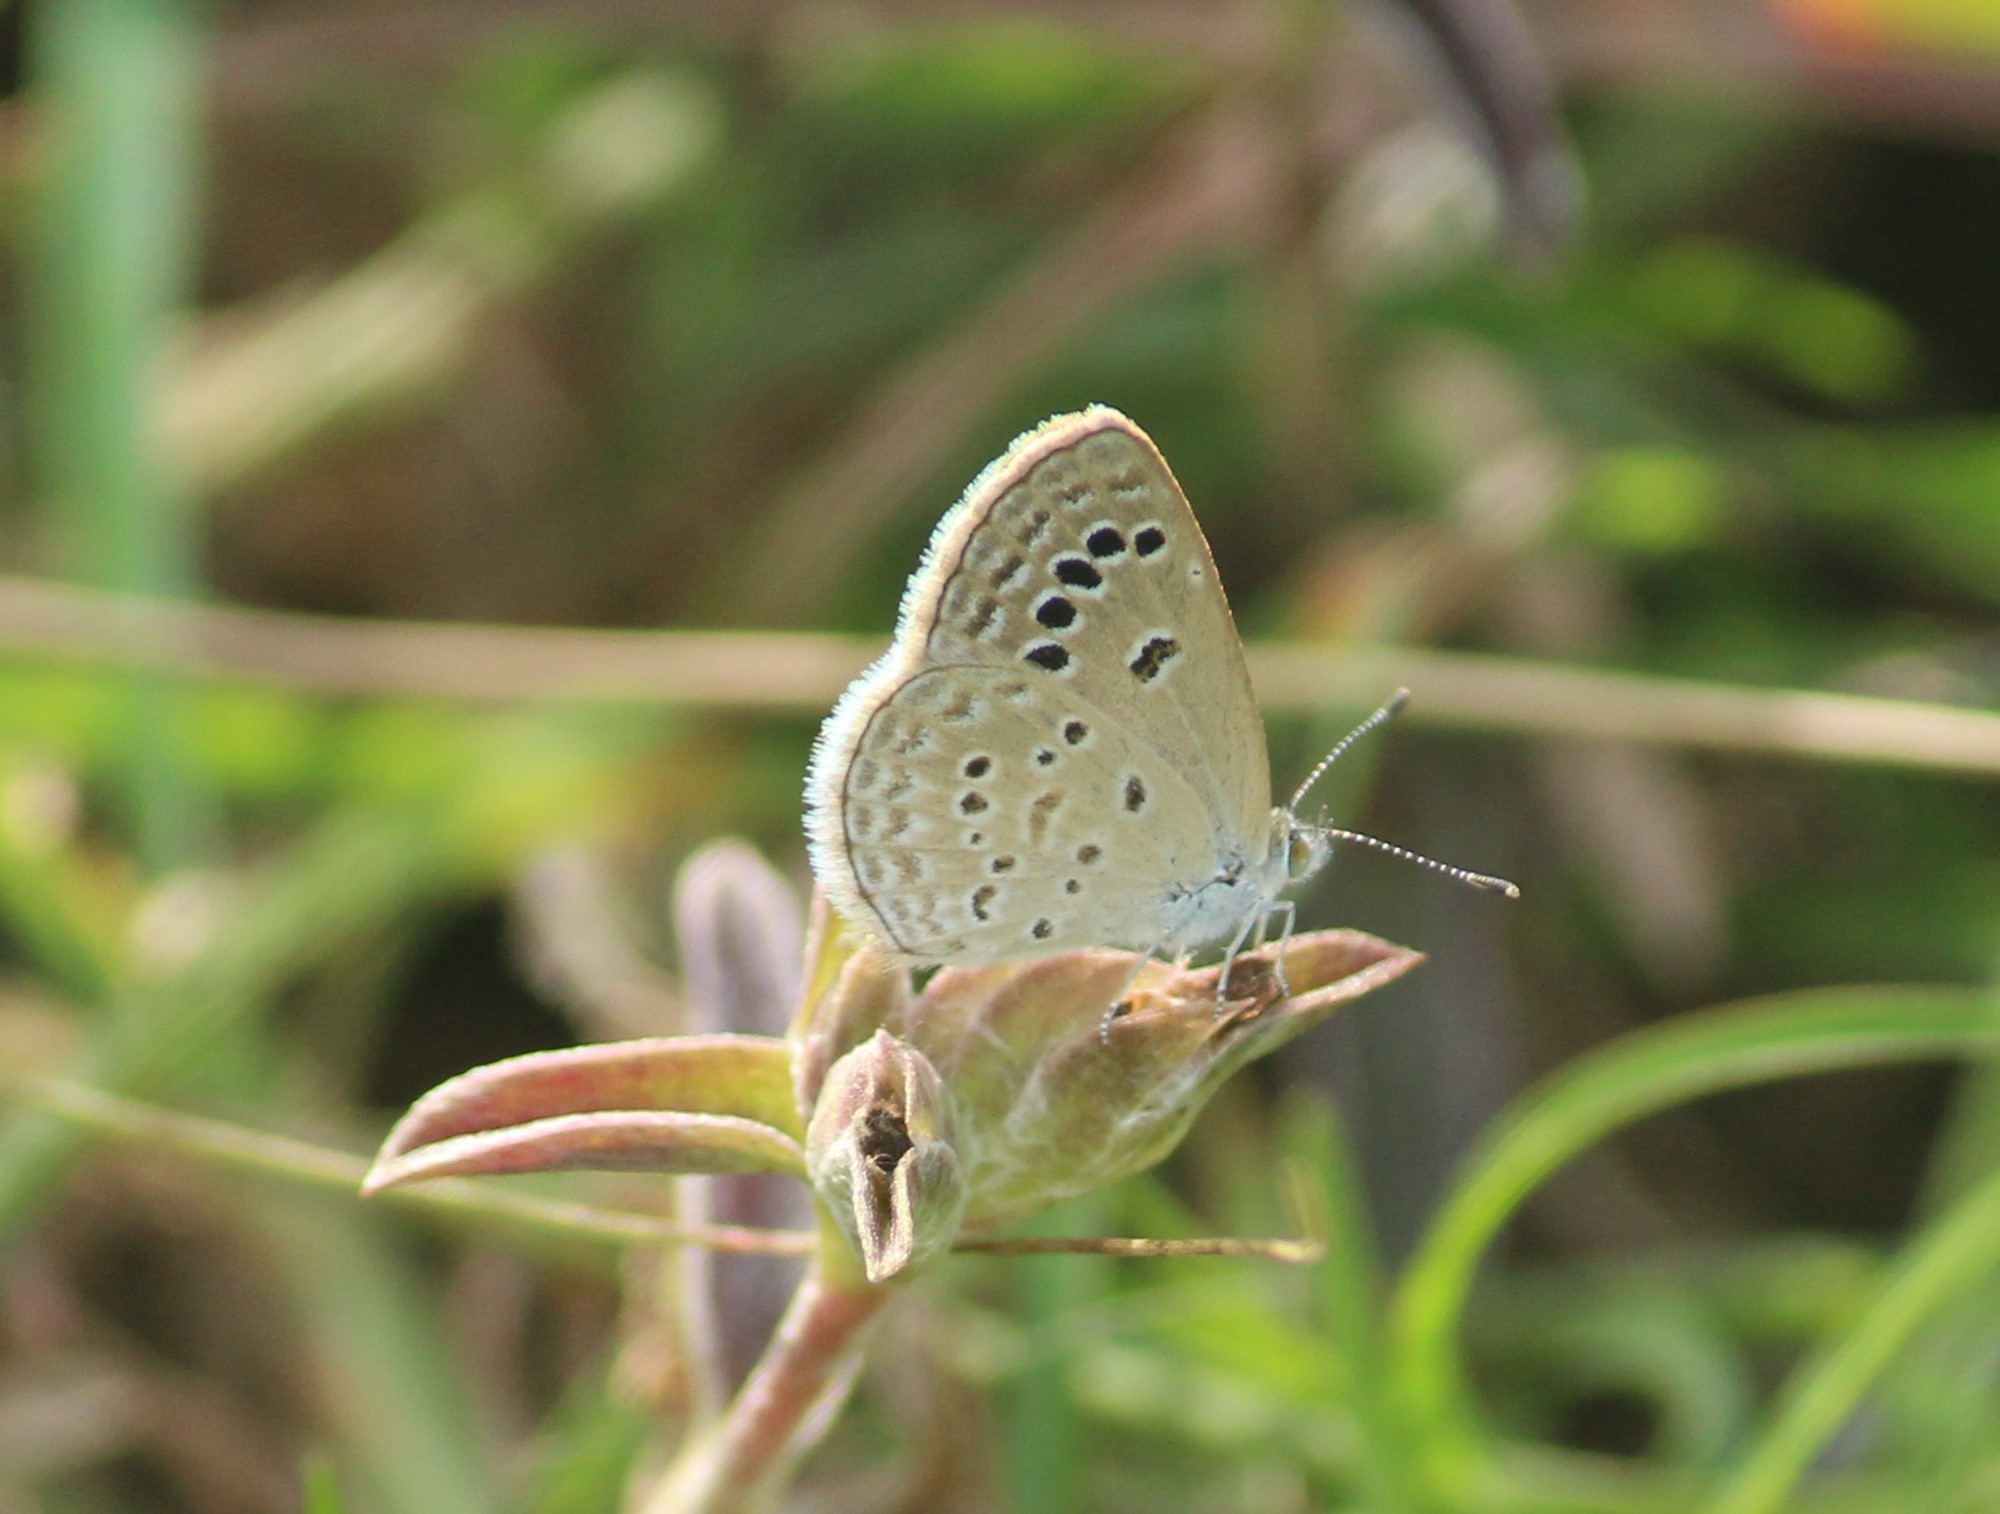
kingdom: Animalia
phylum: Arthropoda
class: Insecta
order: Lepidoptera
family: Lycaenidae
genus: Zizina
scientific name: Zizina otis
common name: Lesser grass blue
